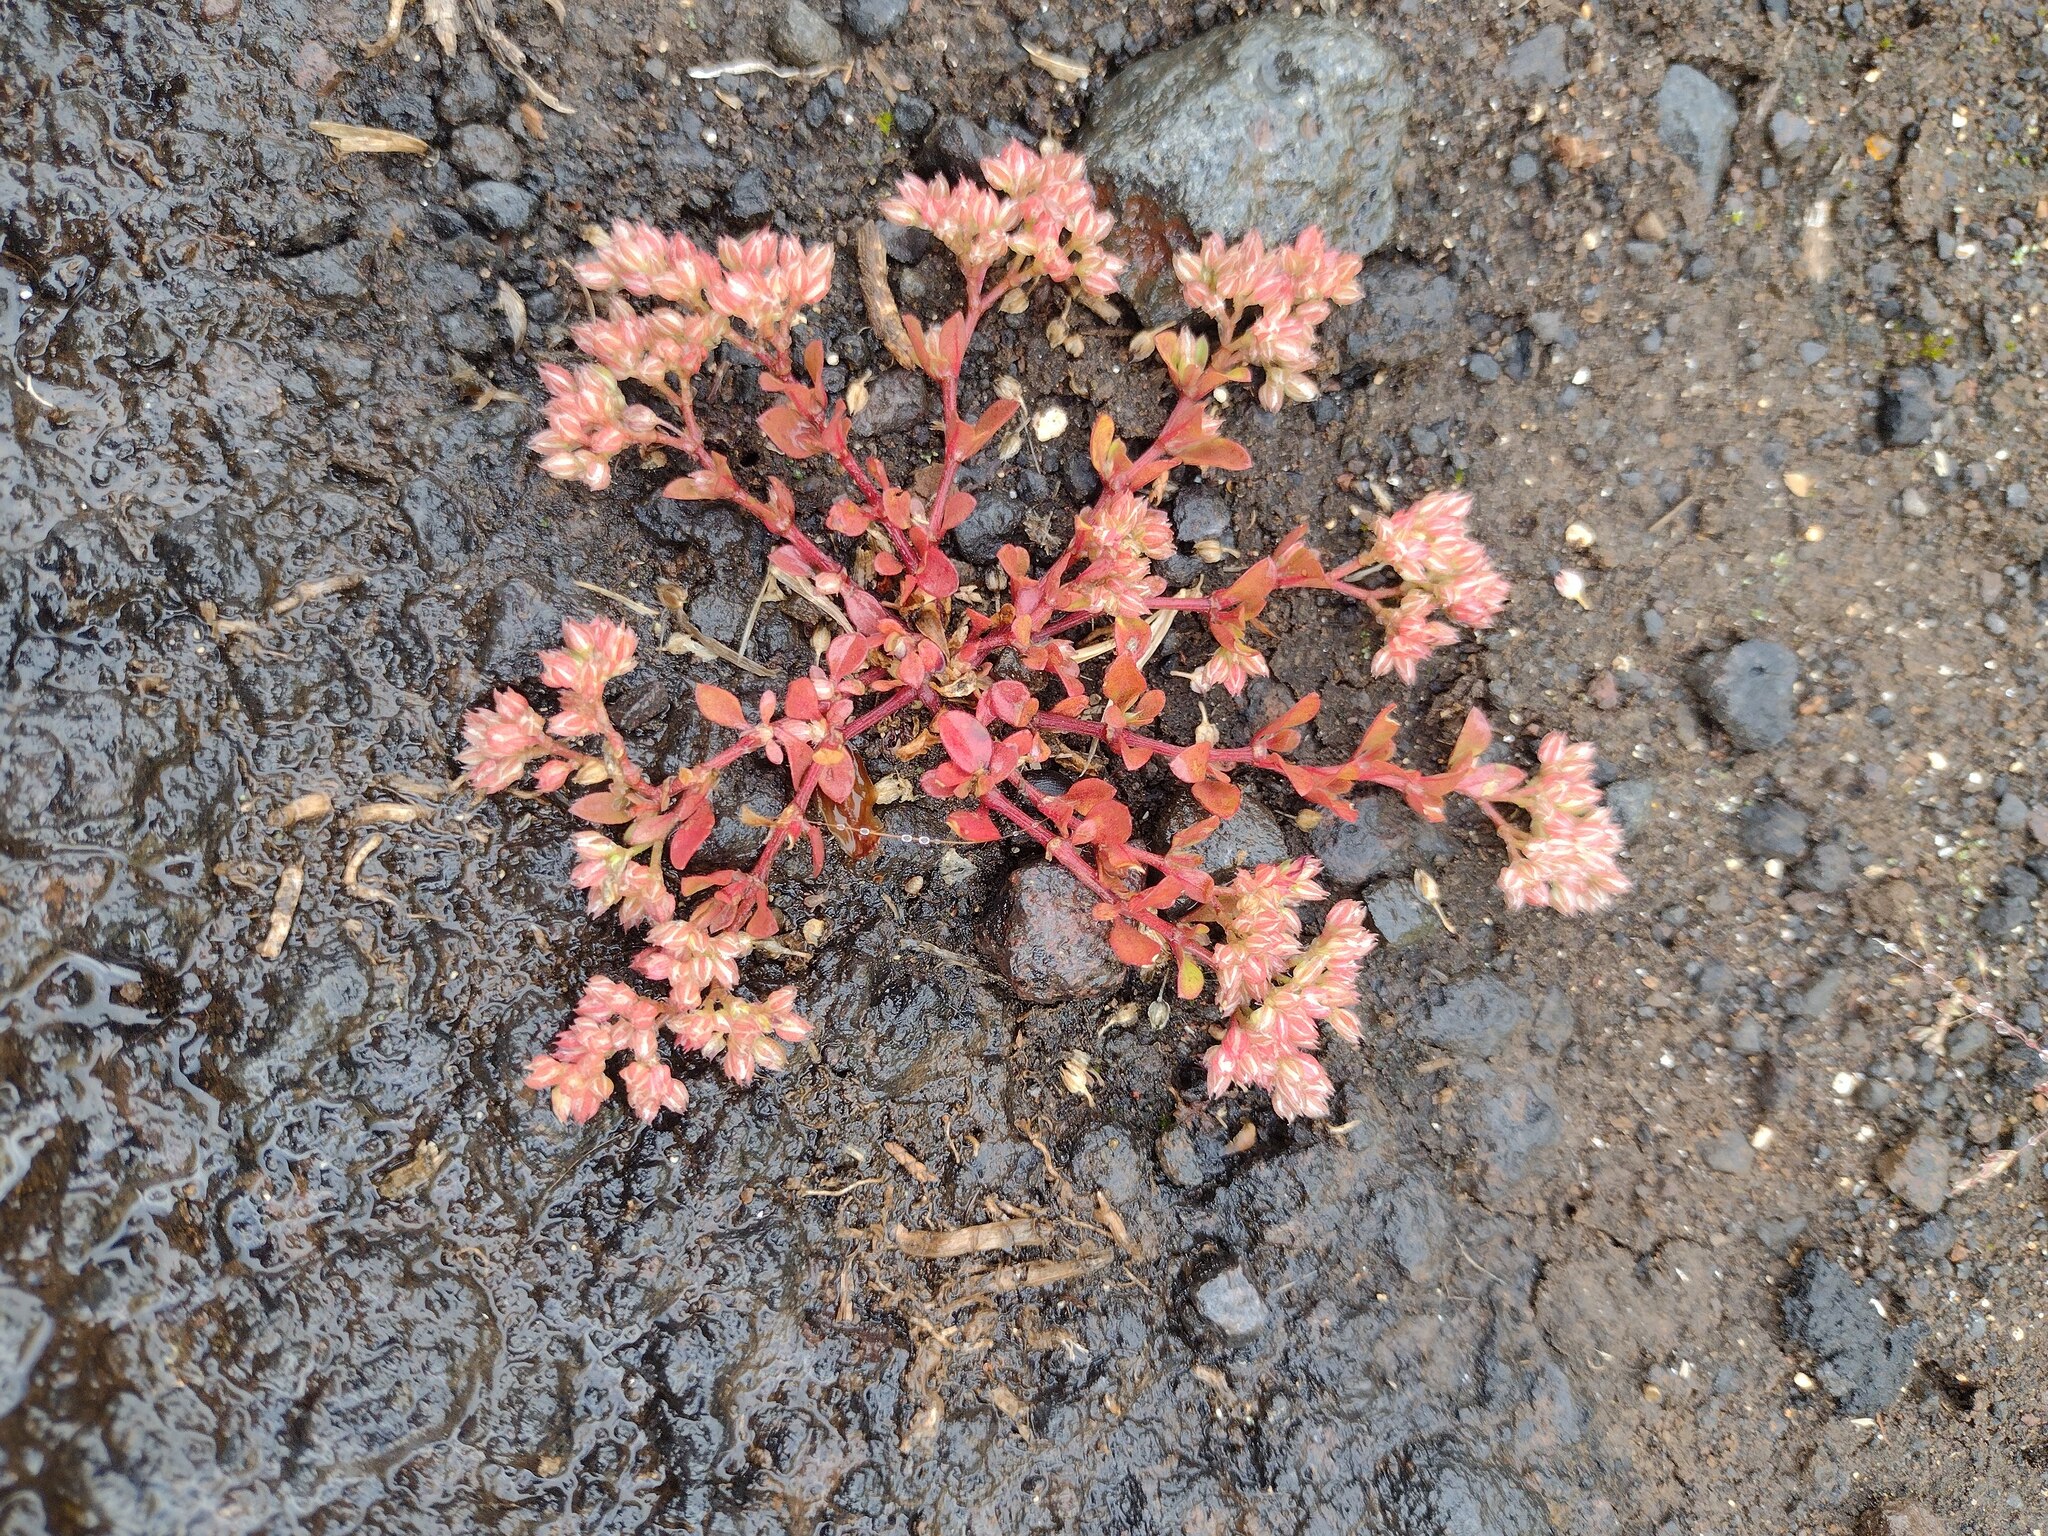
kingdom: Plantae
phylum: Tracheophyta
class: Magnoliopsida
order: Caryophyllales
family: Caryophyllaceae
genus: Polycarpon
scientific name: Polycarpon tetraphyllum
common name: Four-leaved all-seed
